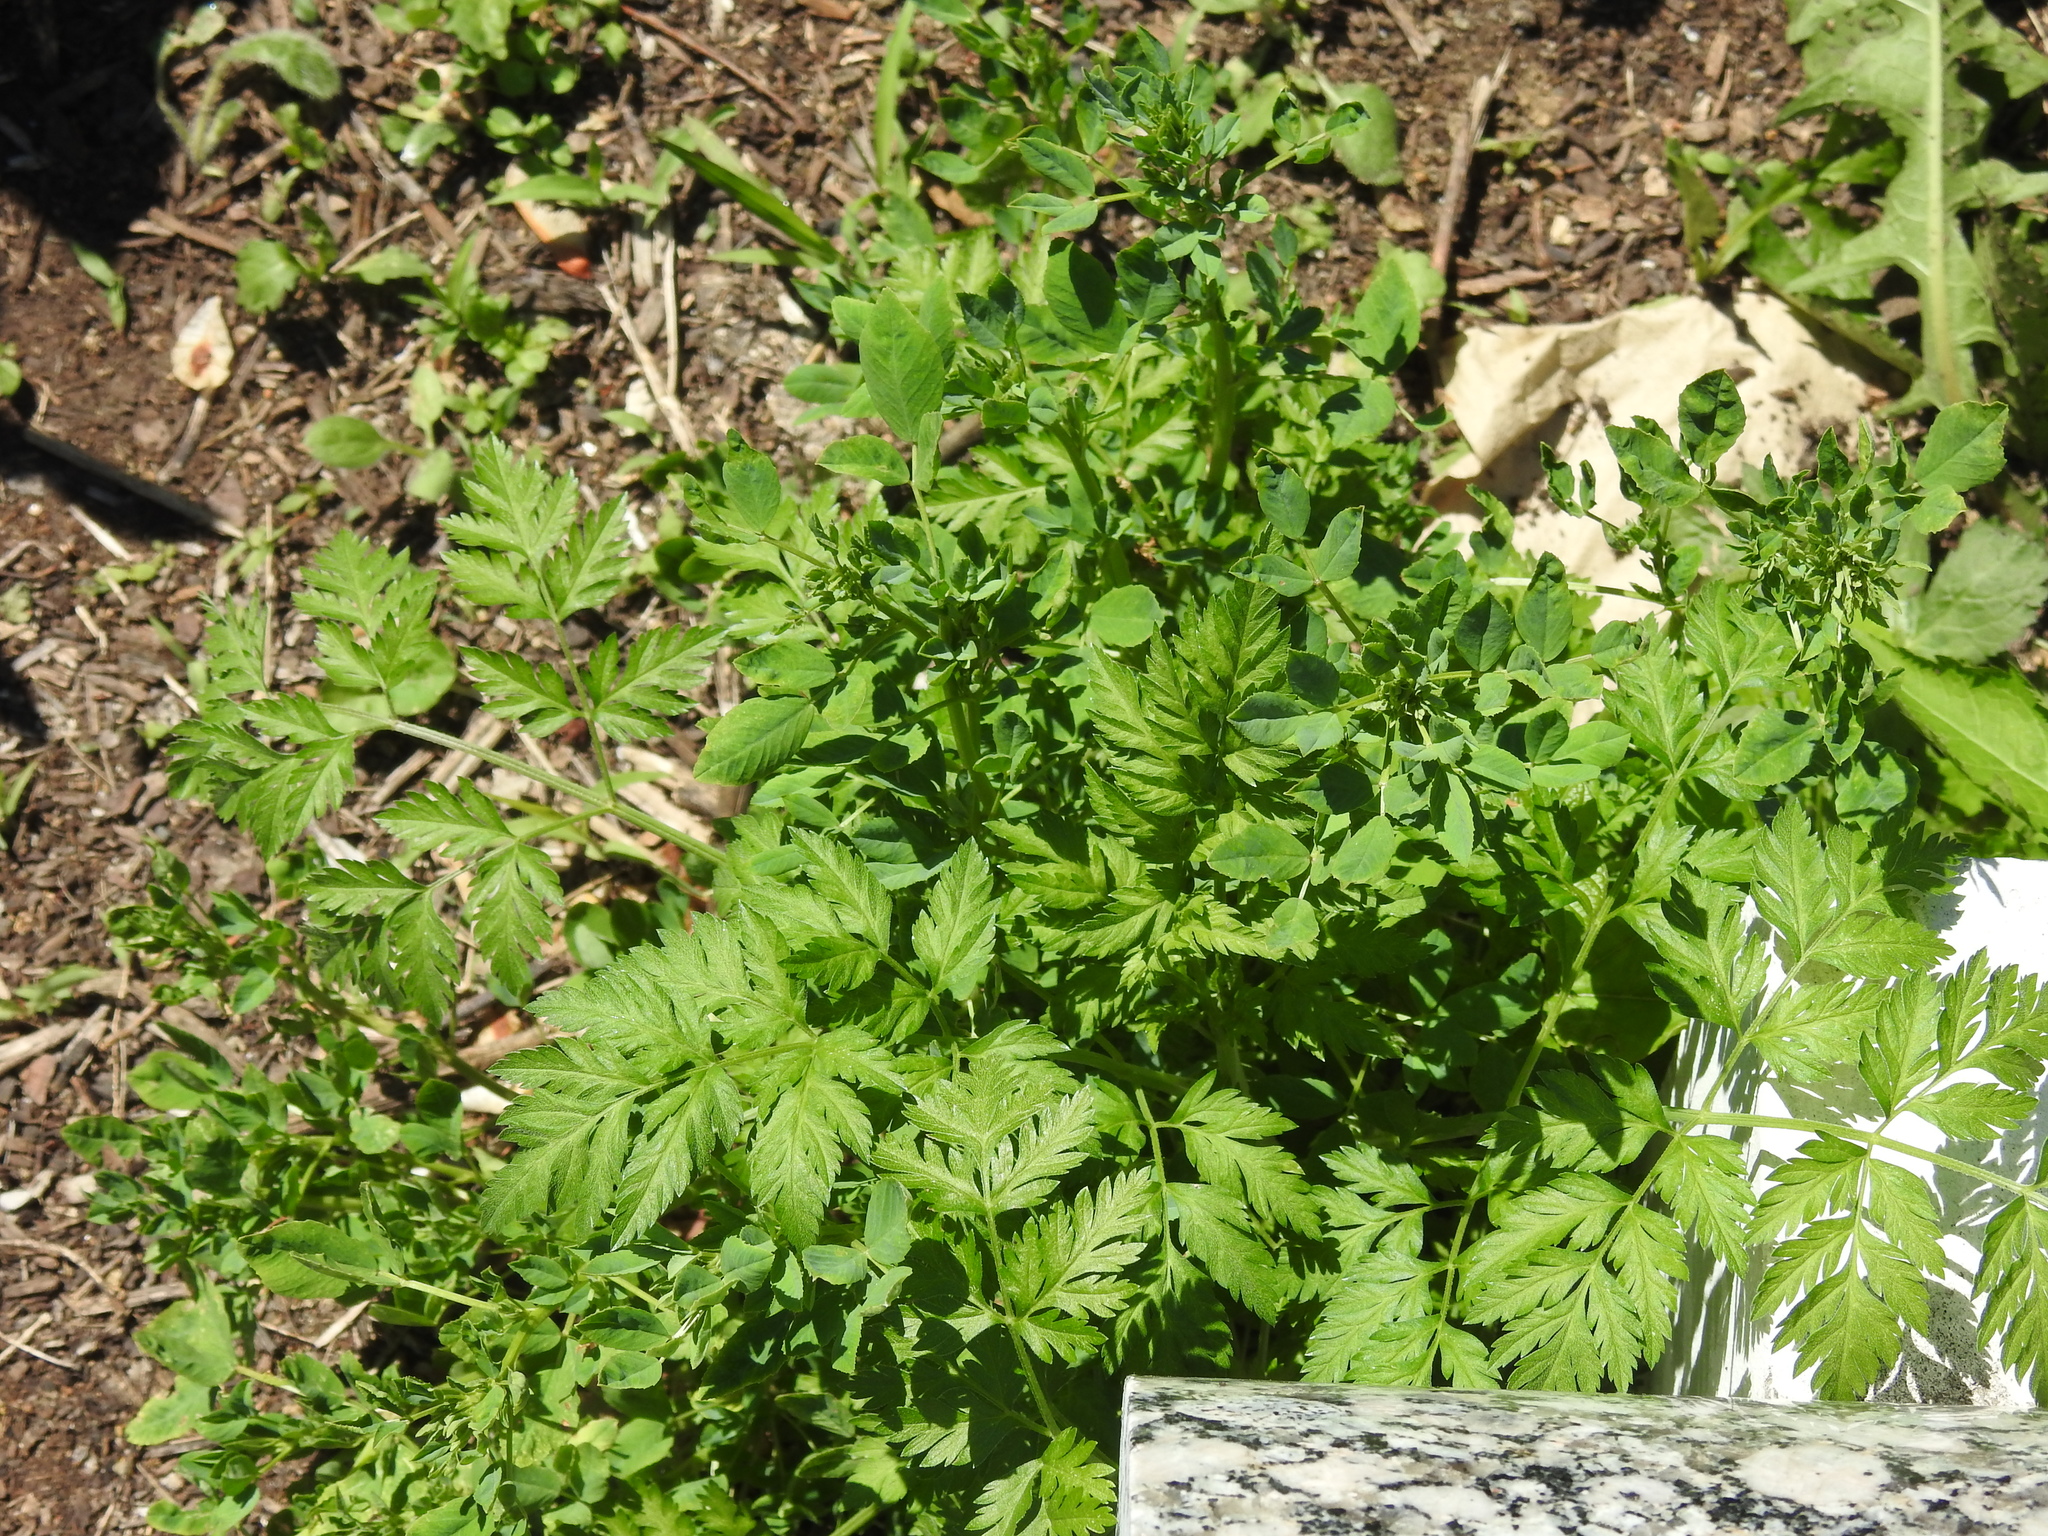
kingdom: Plantae
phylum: Tracheophyta
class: Magnoliopsida
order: Apiales
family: Apiaceae
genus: Conium
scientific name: Conium maculatum
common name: Hemlock
